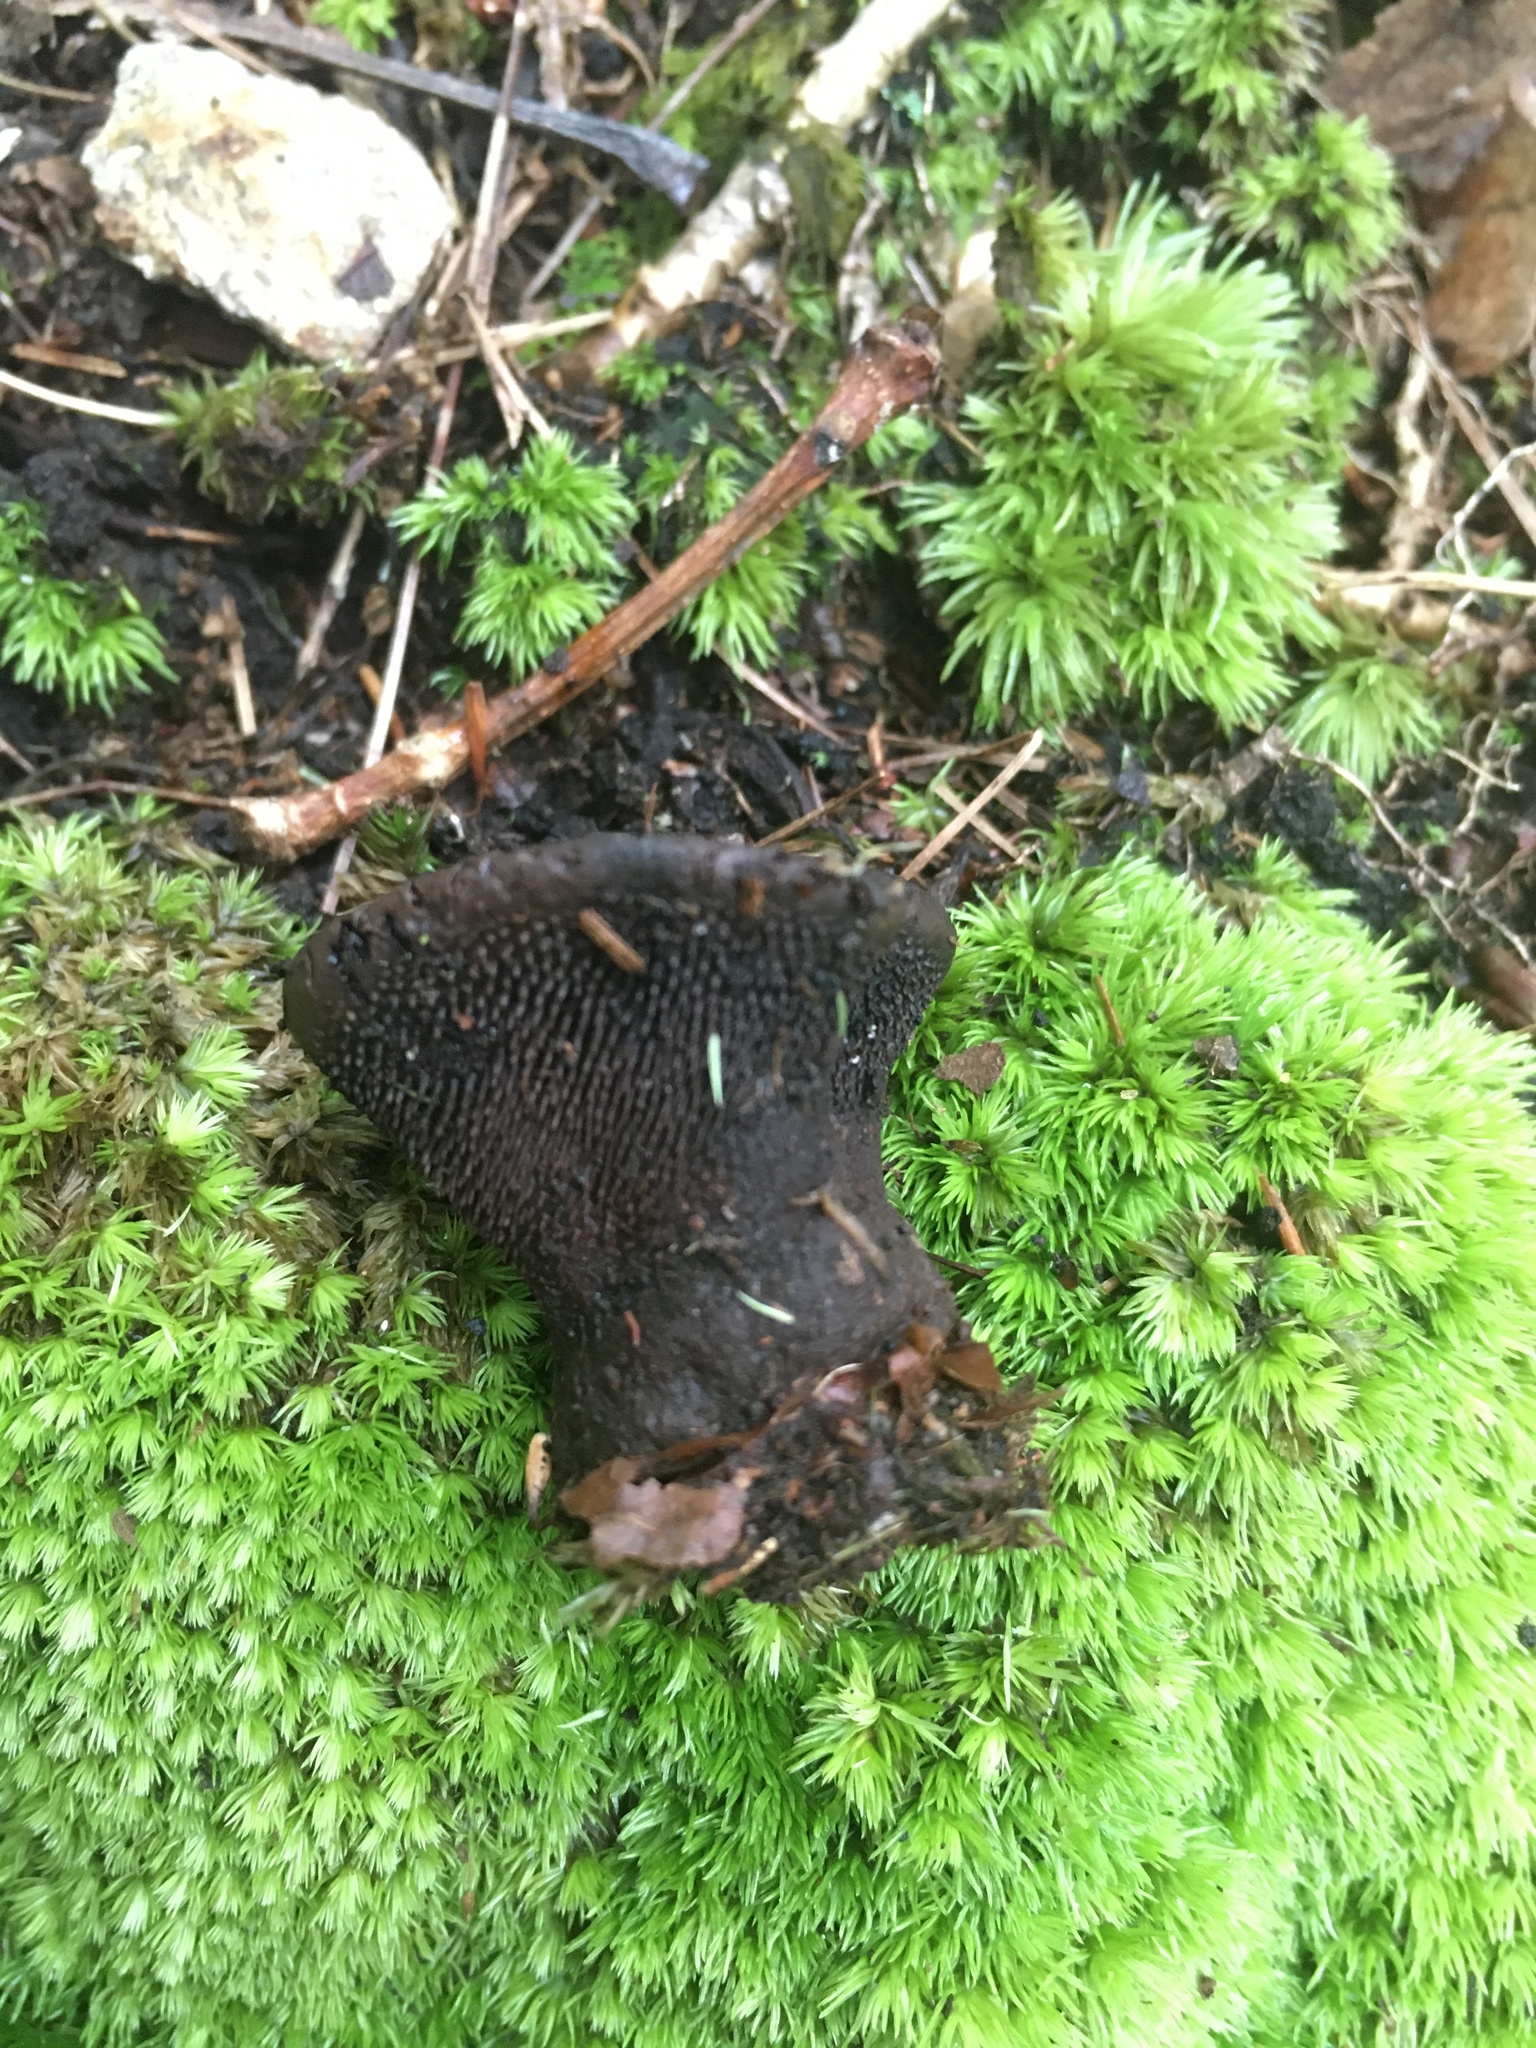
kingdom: Fungi
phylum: Basidiomycota
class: Agaricomycetes
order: Thelephorales
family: Thelephoraceae
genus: Phellodon
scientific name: Phellodon niger
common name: Black tooth
